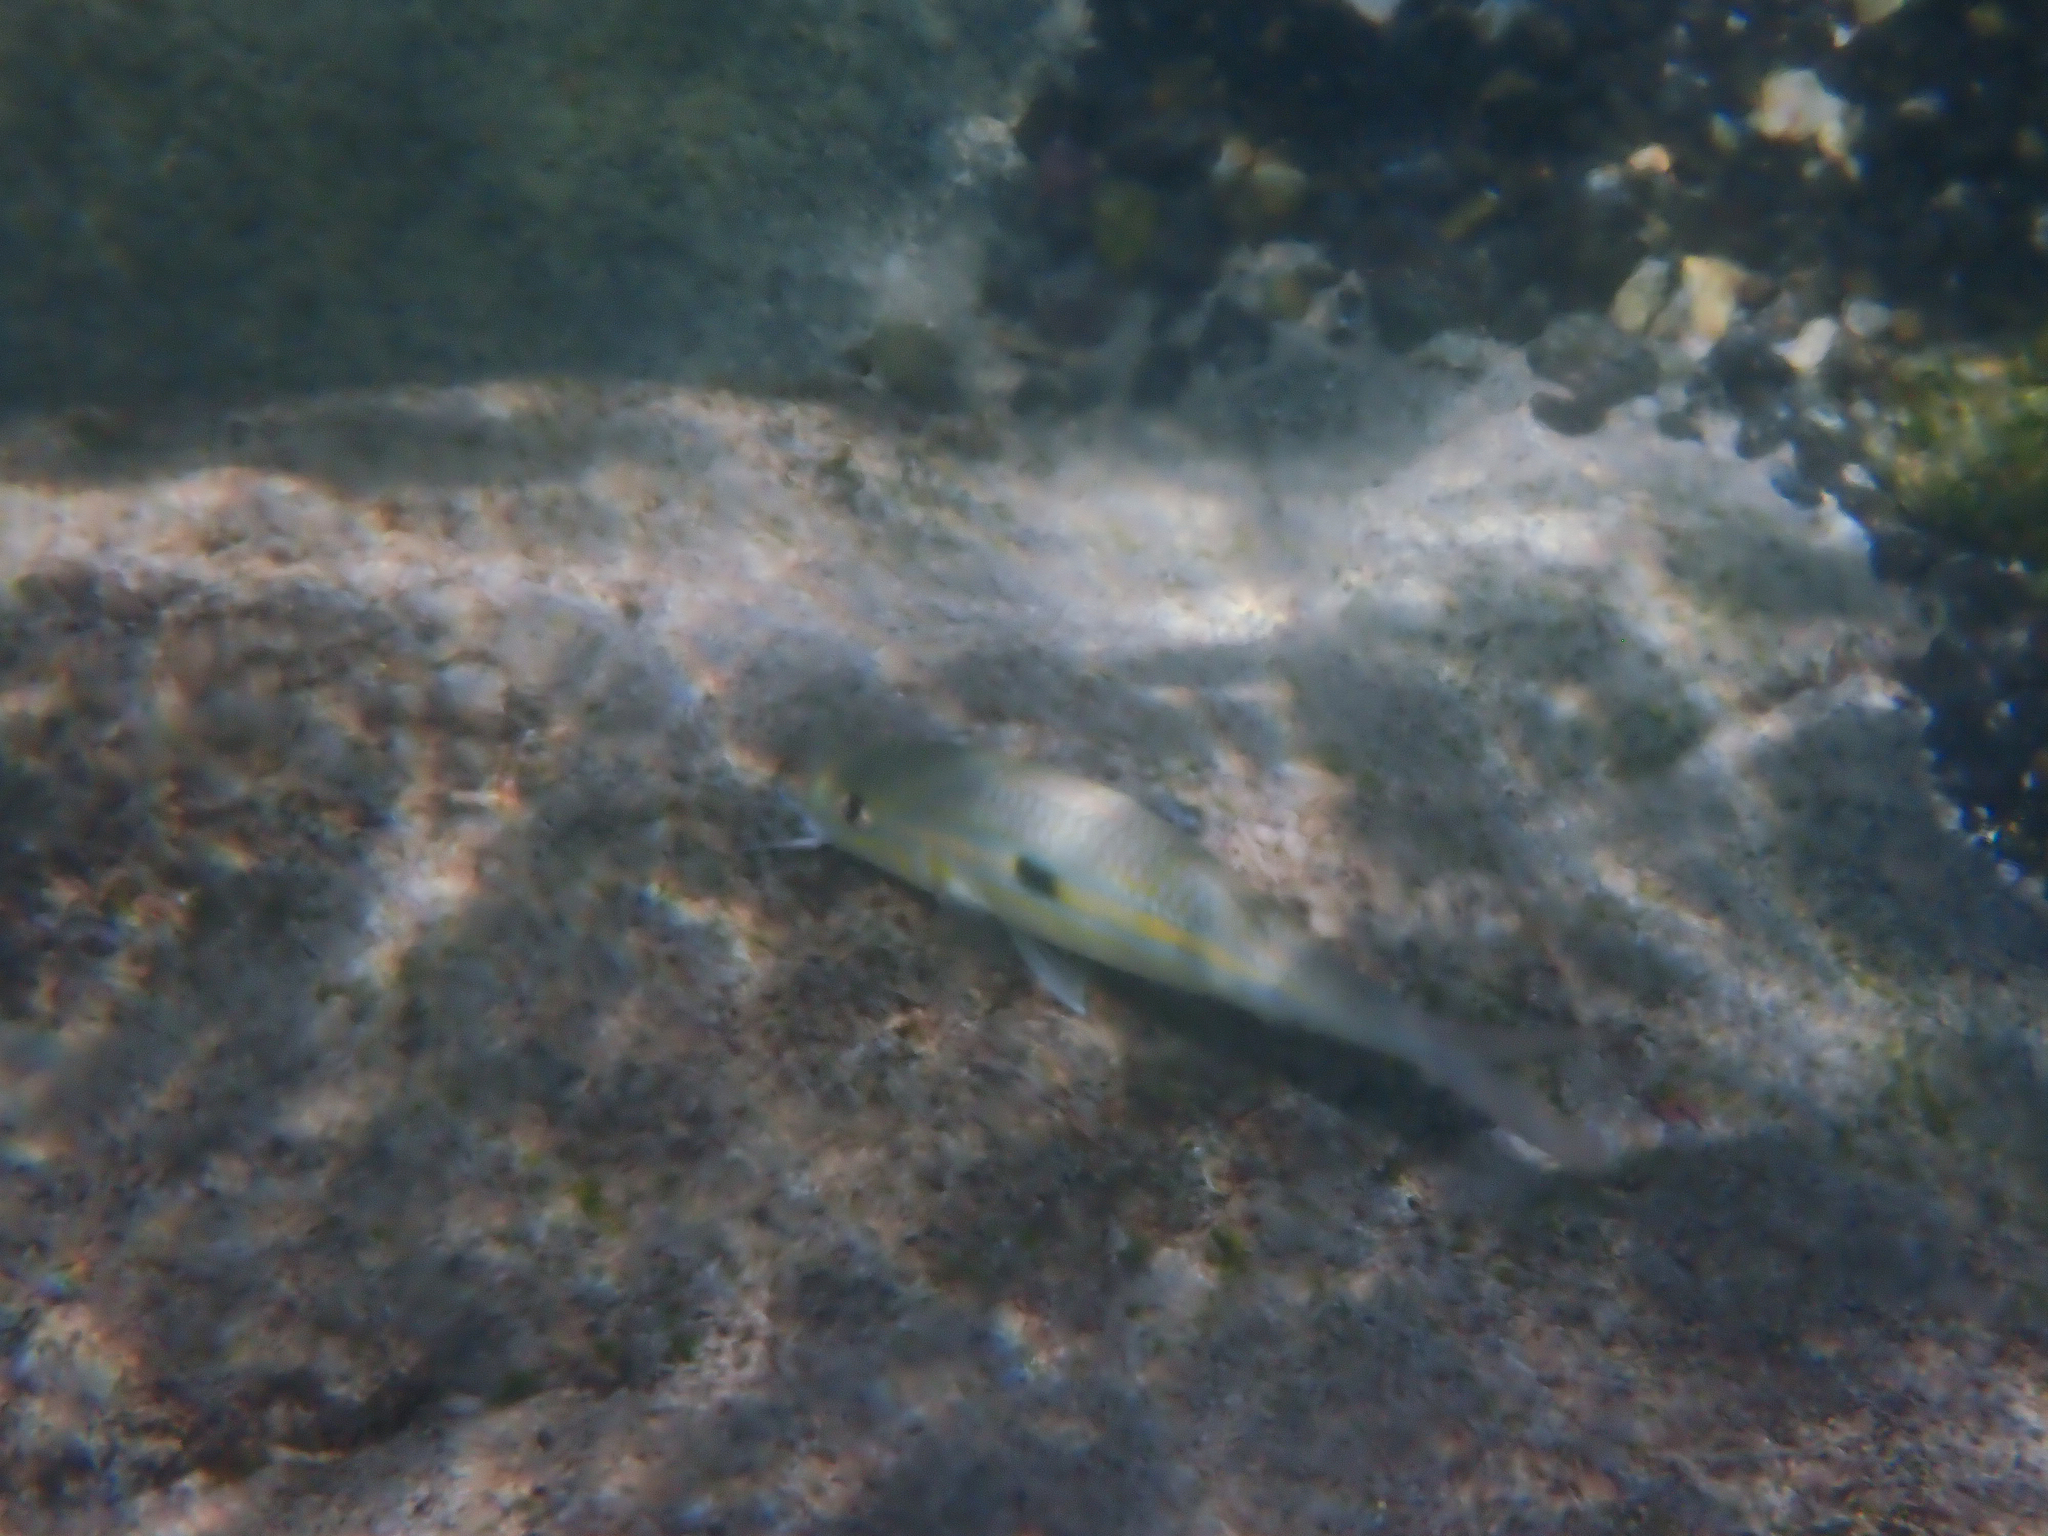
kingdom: Animalia
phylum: Chordata
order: Perciformes
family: Mullidae
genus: Mulloidichthys
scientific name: Mulloidichthys flavolineatus
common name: Yellowstripe goatfish
